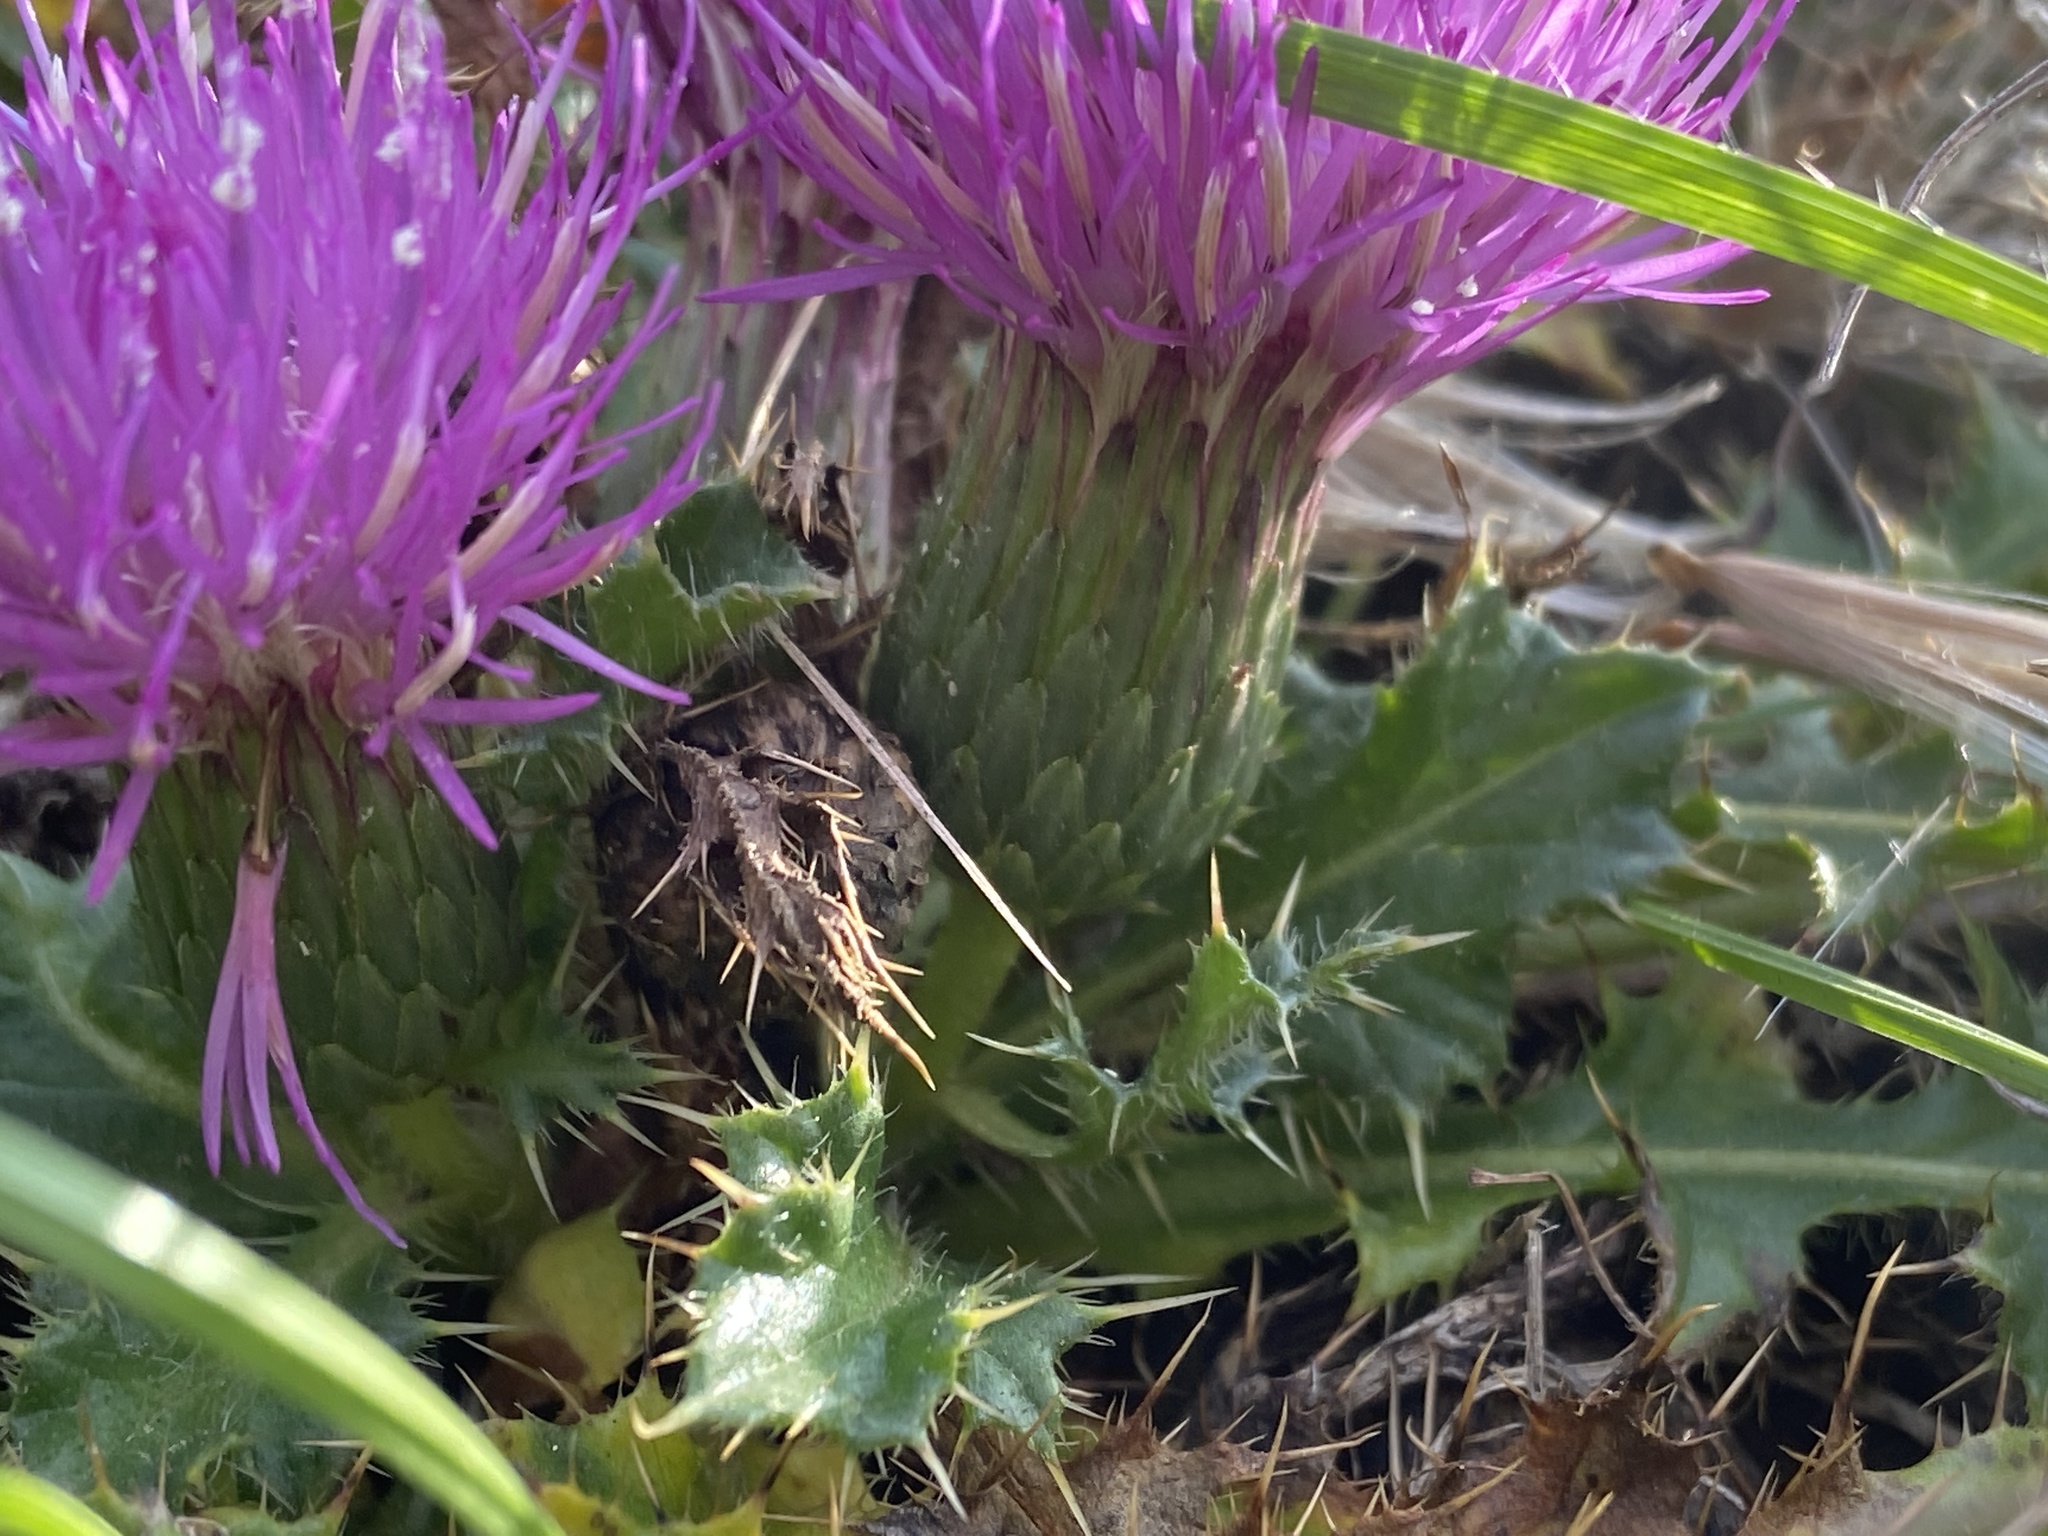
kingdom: Plantae
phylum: Tracheophyta
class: Magnoliopsida
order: Asterales
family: Asteraceae
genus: Cirsium
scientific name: Cirsium acaulon
